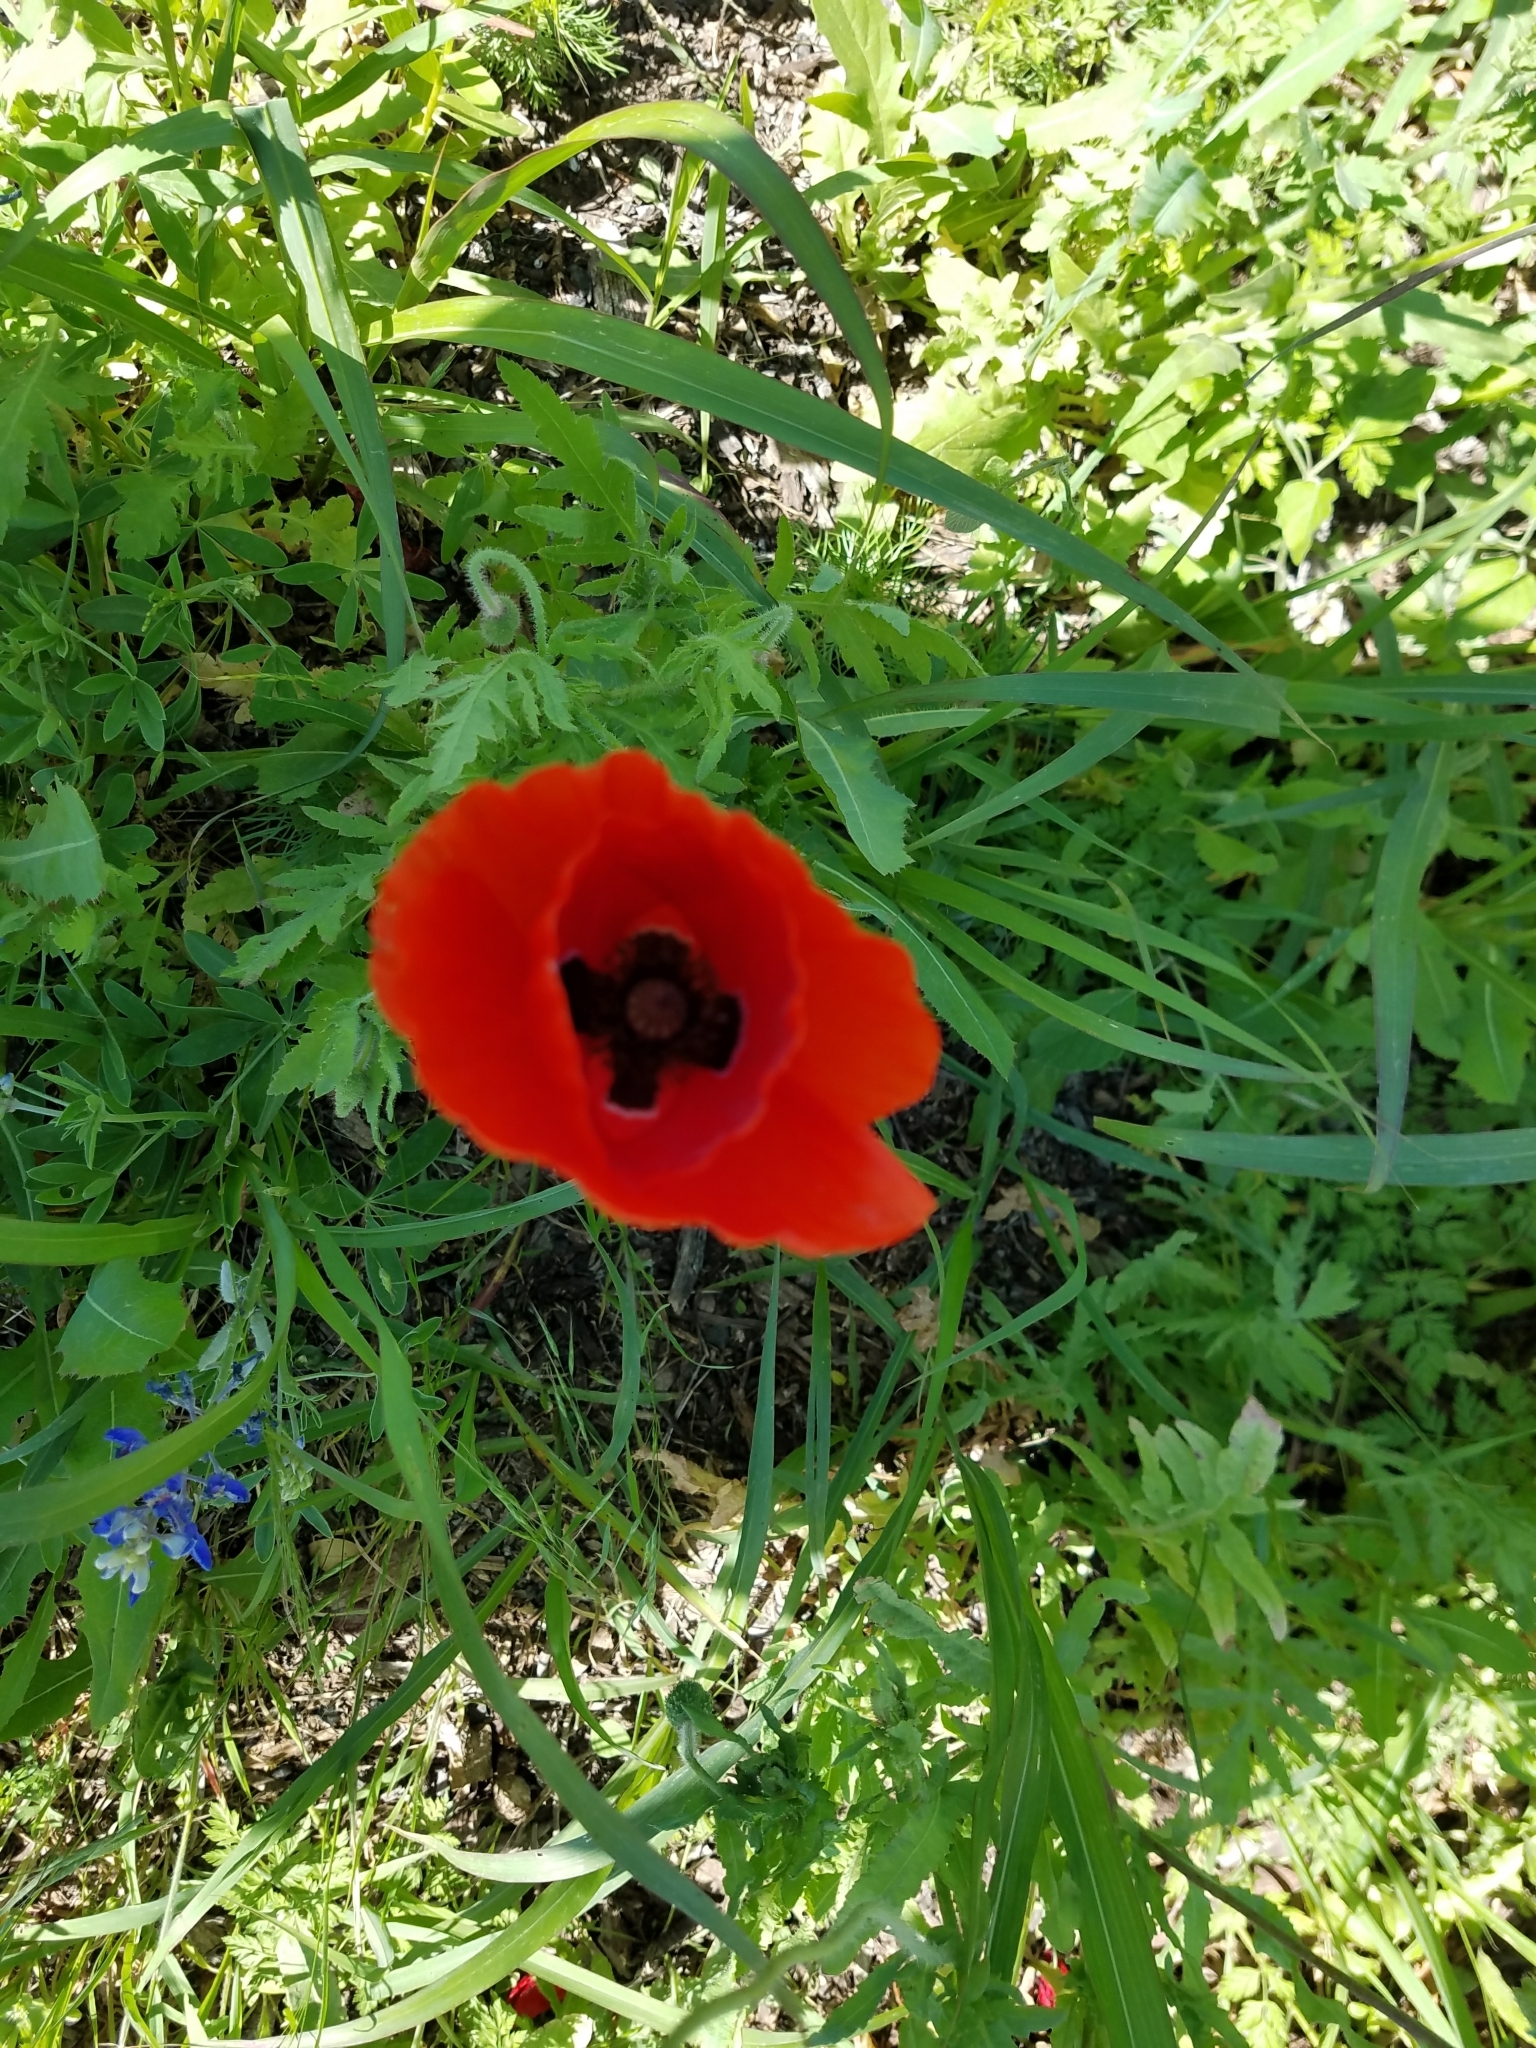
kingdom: Plantae
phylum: Tracheophyta
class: Magnoliopsida
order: Ranunculales
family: Papaveraceae
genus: Papaver
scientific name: Papaver rhoeas
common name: Corn poppy
